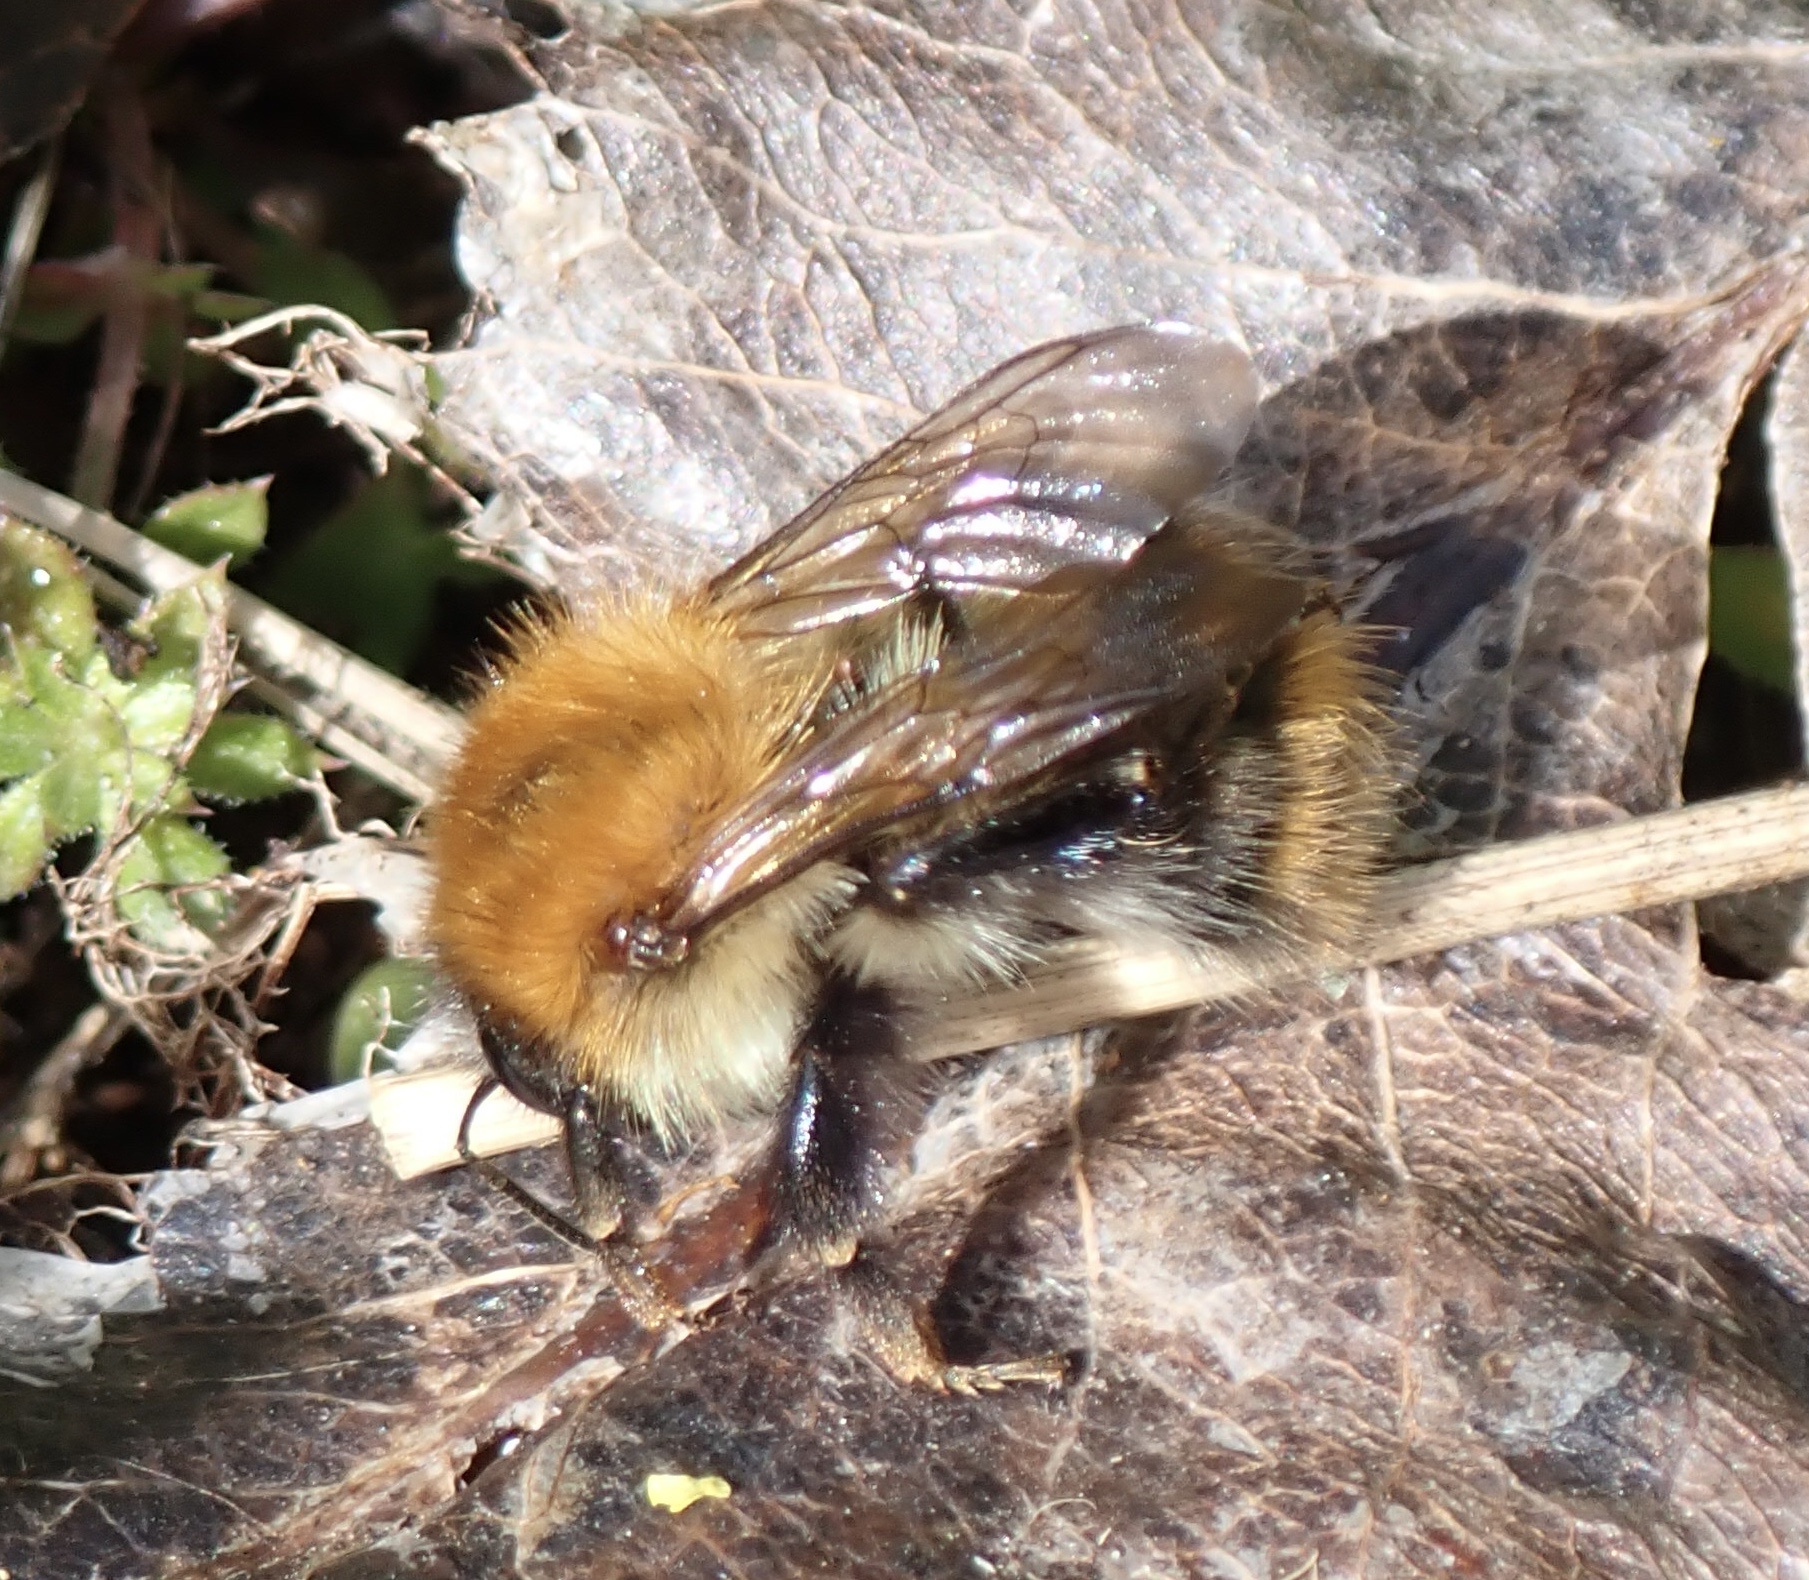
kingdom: Animalia
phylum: Arthropoda
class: Insecta
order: Hymenoptera
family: Apidae
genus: Bombus
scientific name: Bombus pascuorum
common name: Common carder bee
